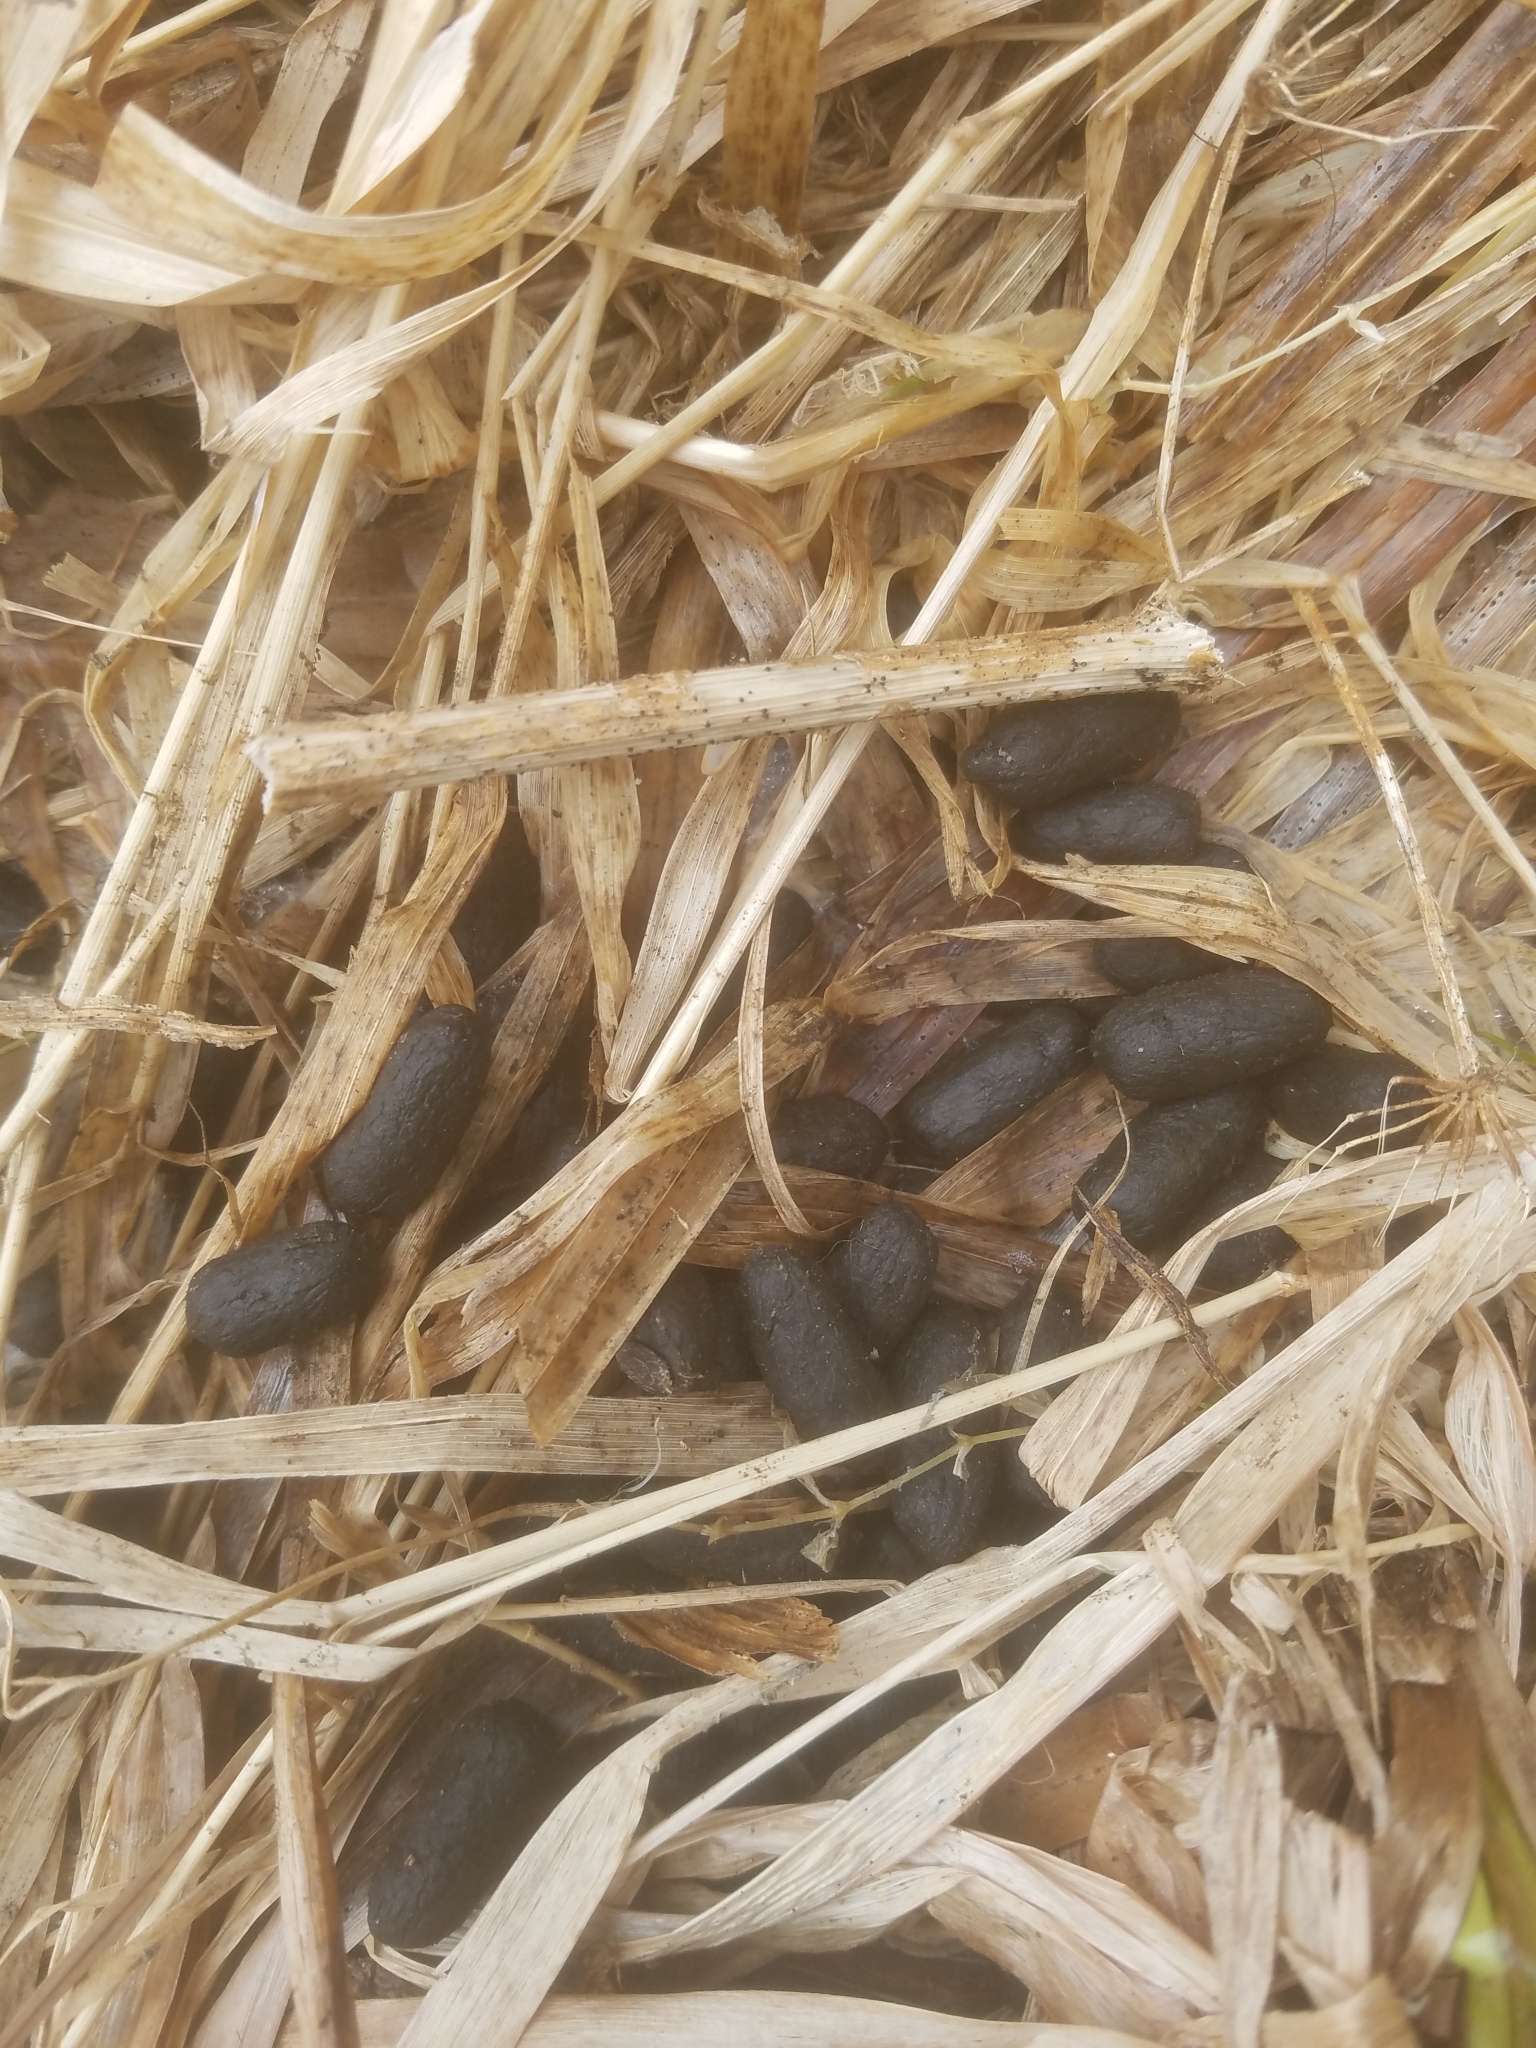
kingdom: Animalia
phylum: Chordata
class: Mammalia
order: Artiodactyla
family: Cervidae
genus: Odocoileus
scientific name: Odocoileus hemionus
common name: Mule deer
